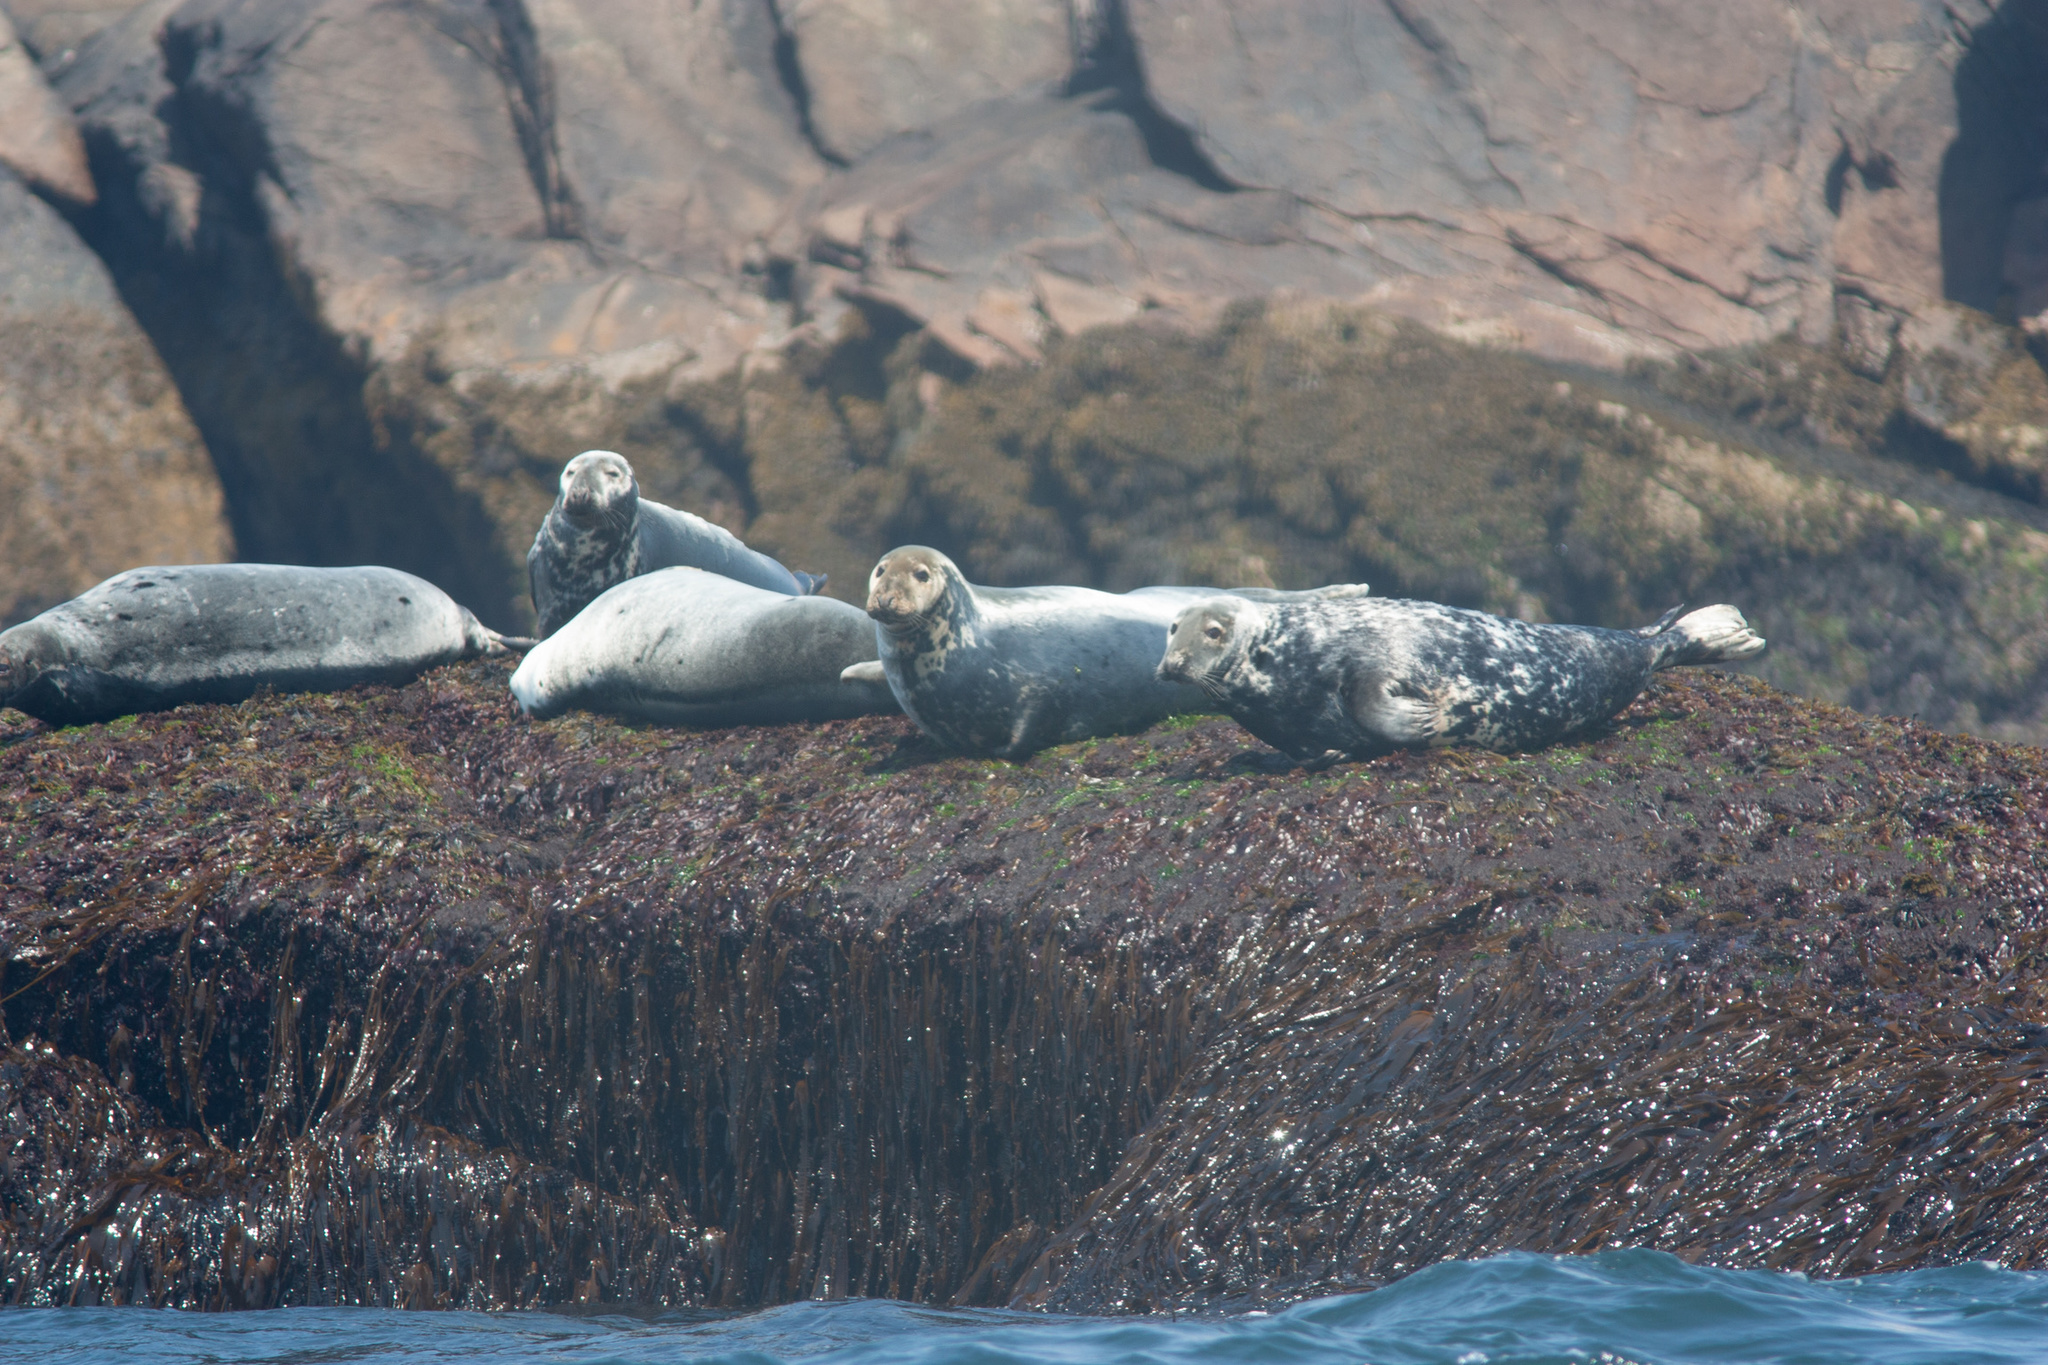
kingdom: Animalia
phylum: Chordata
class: Mammalia
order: Carnivora
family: Phocidae
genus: Halichoerus
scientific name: Halichoerus grypus
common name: Grey seal
